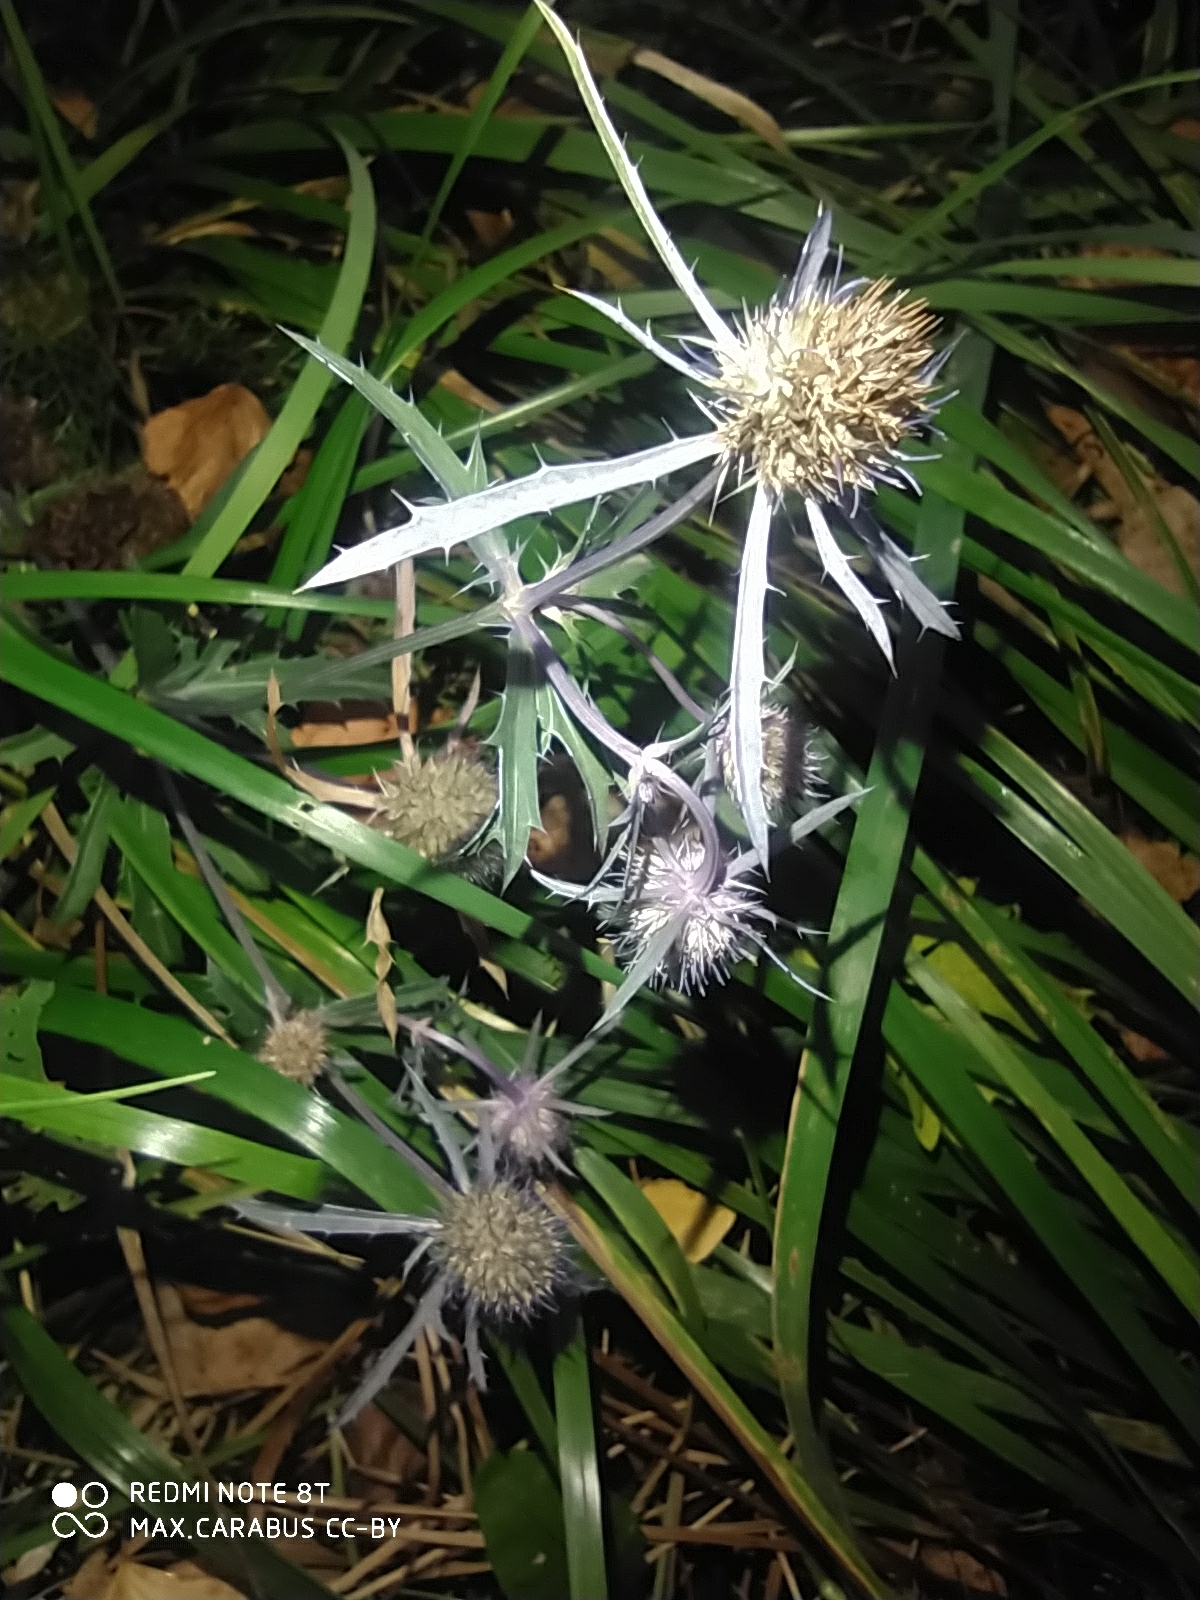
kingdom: Plantae
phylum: Tracheophyta
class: Magnoliopsida
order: Apiales
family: Apiaceae
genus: Eryngium
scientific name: Eryngium planum
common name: Blue eryngo
